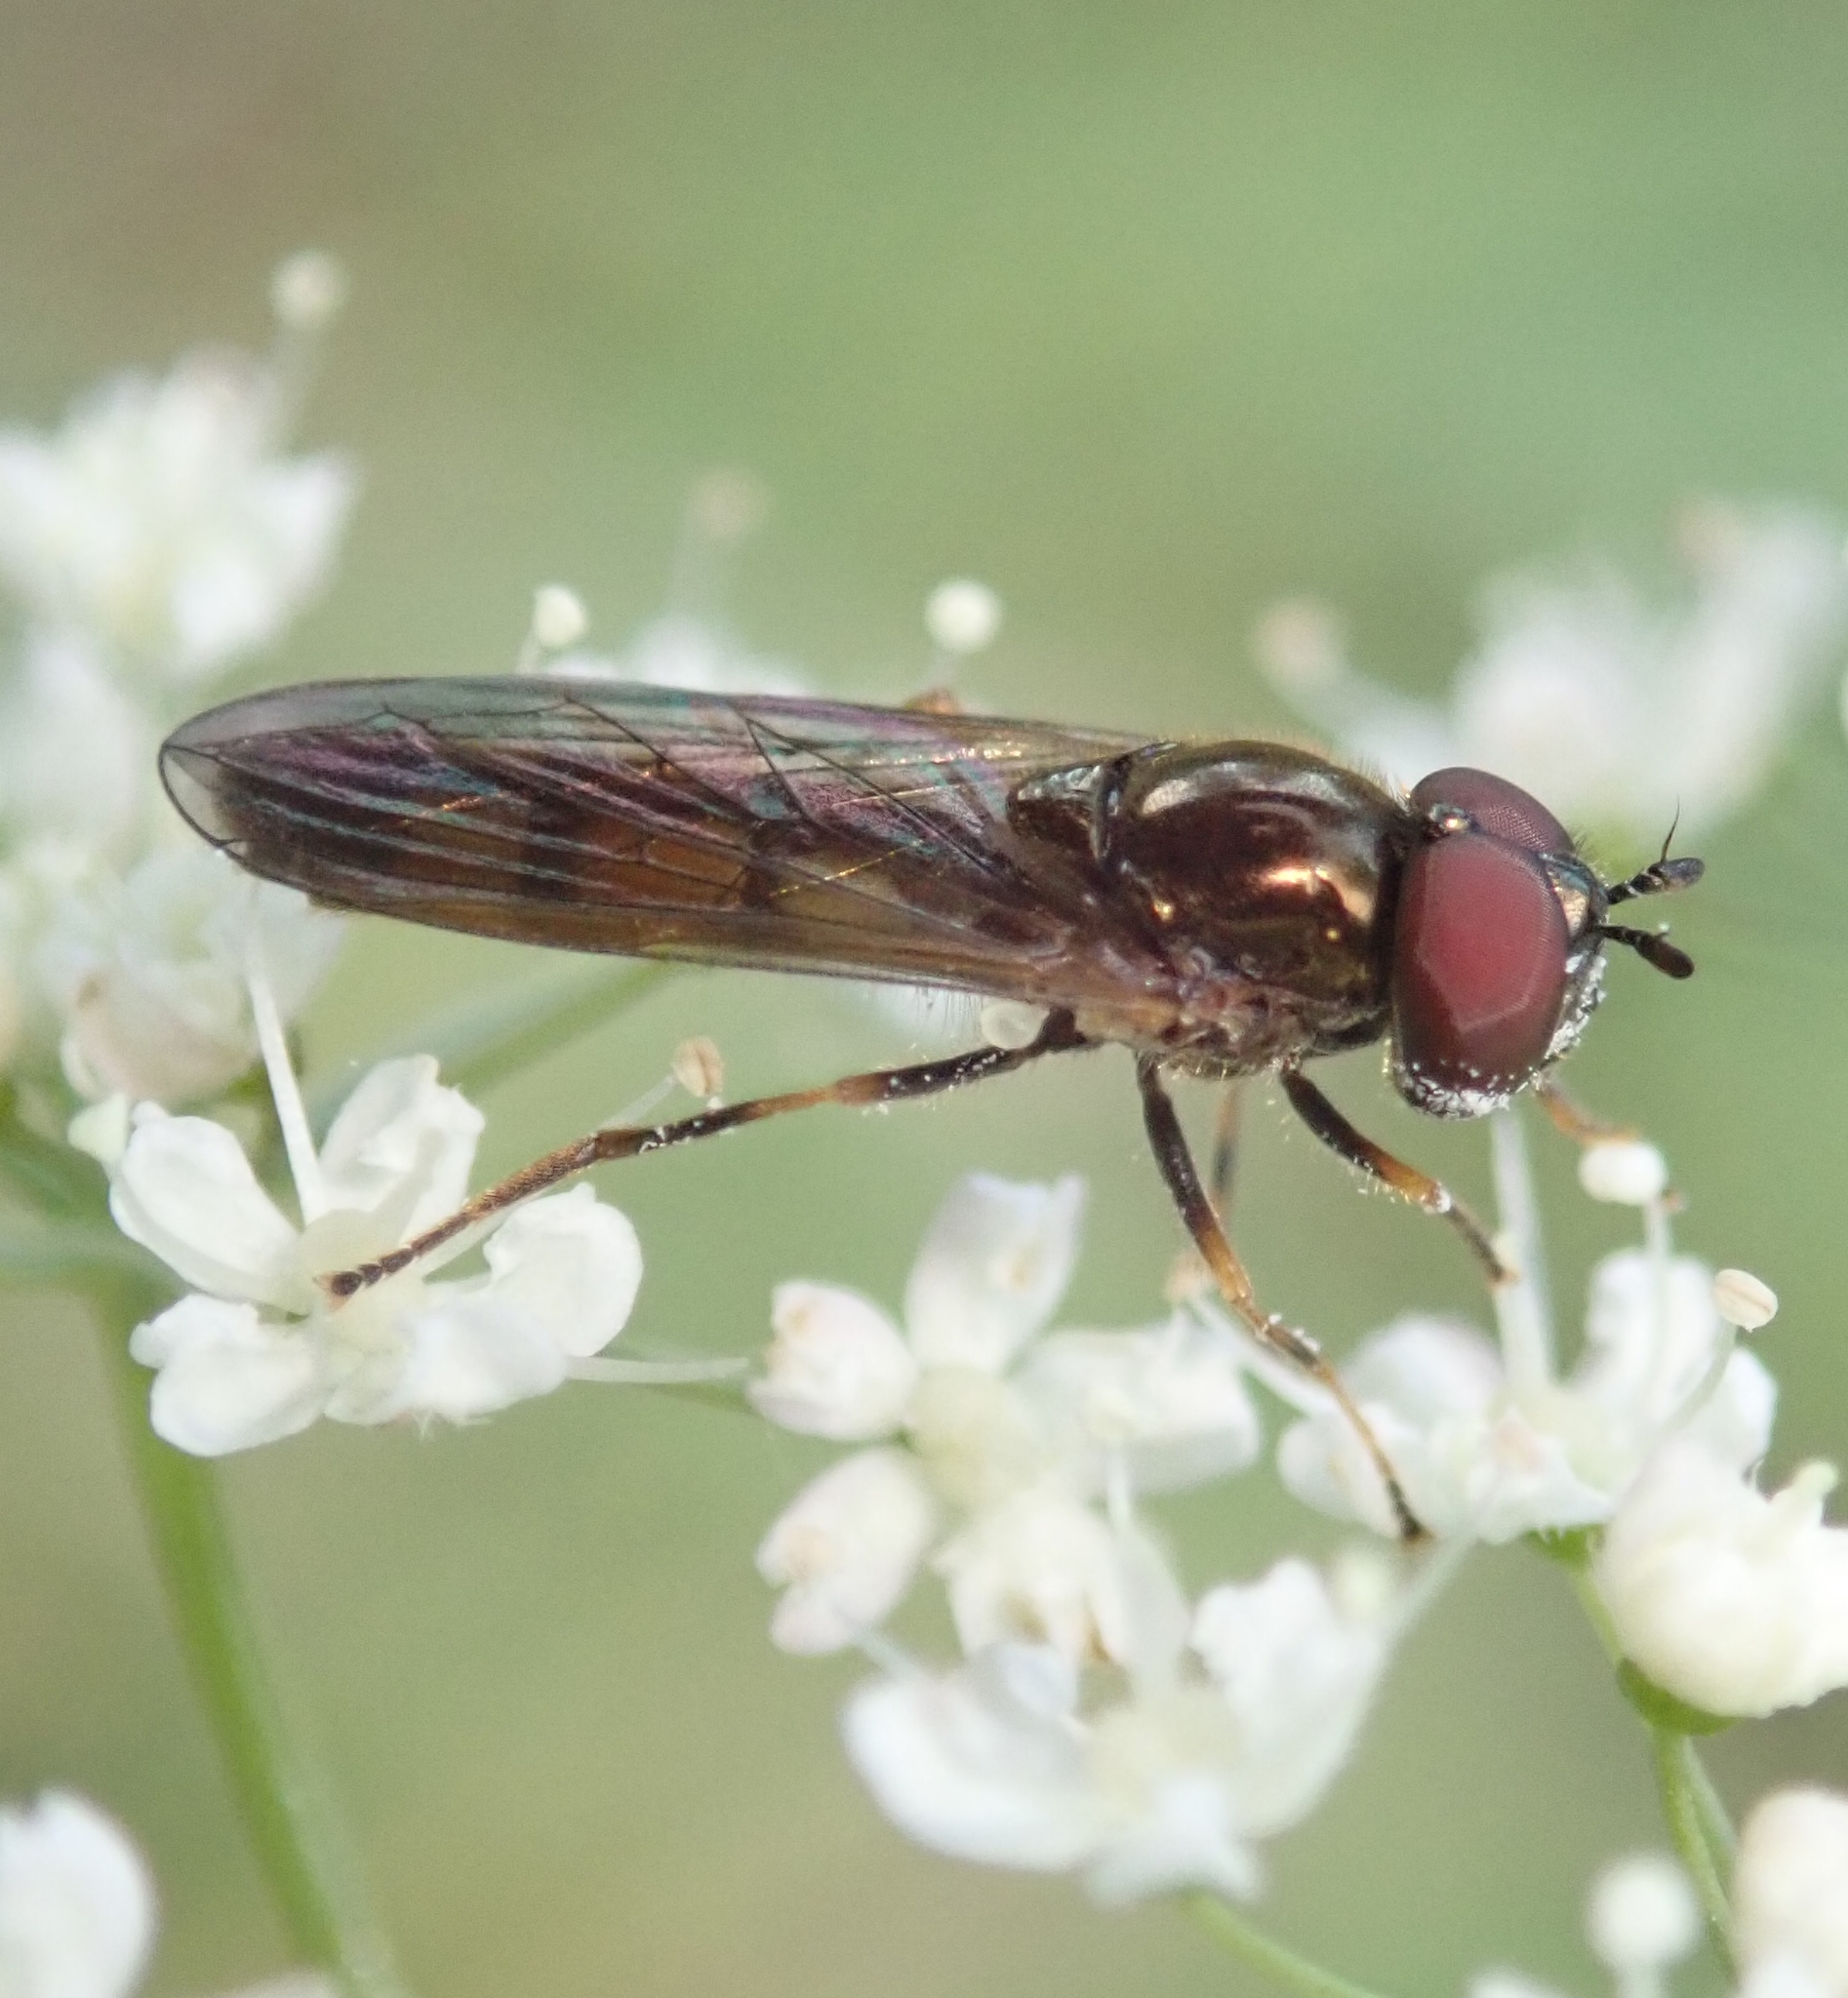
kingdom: Animalia
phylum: Arthropoda
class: Insecta
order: Diptera
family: Syrphidae
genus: Melanostoma
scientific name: Melanostoma mellina
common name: Hover fly
